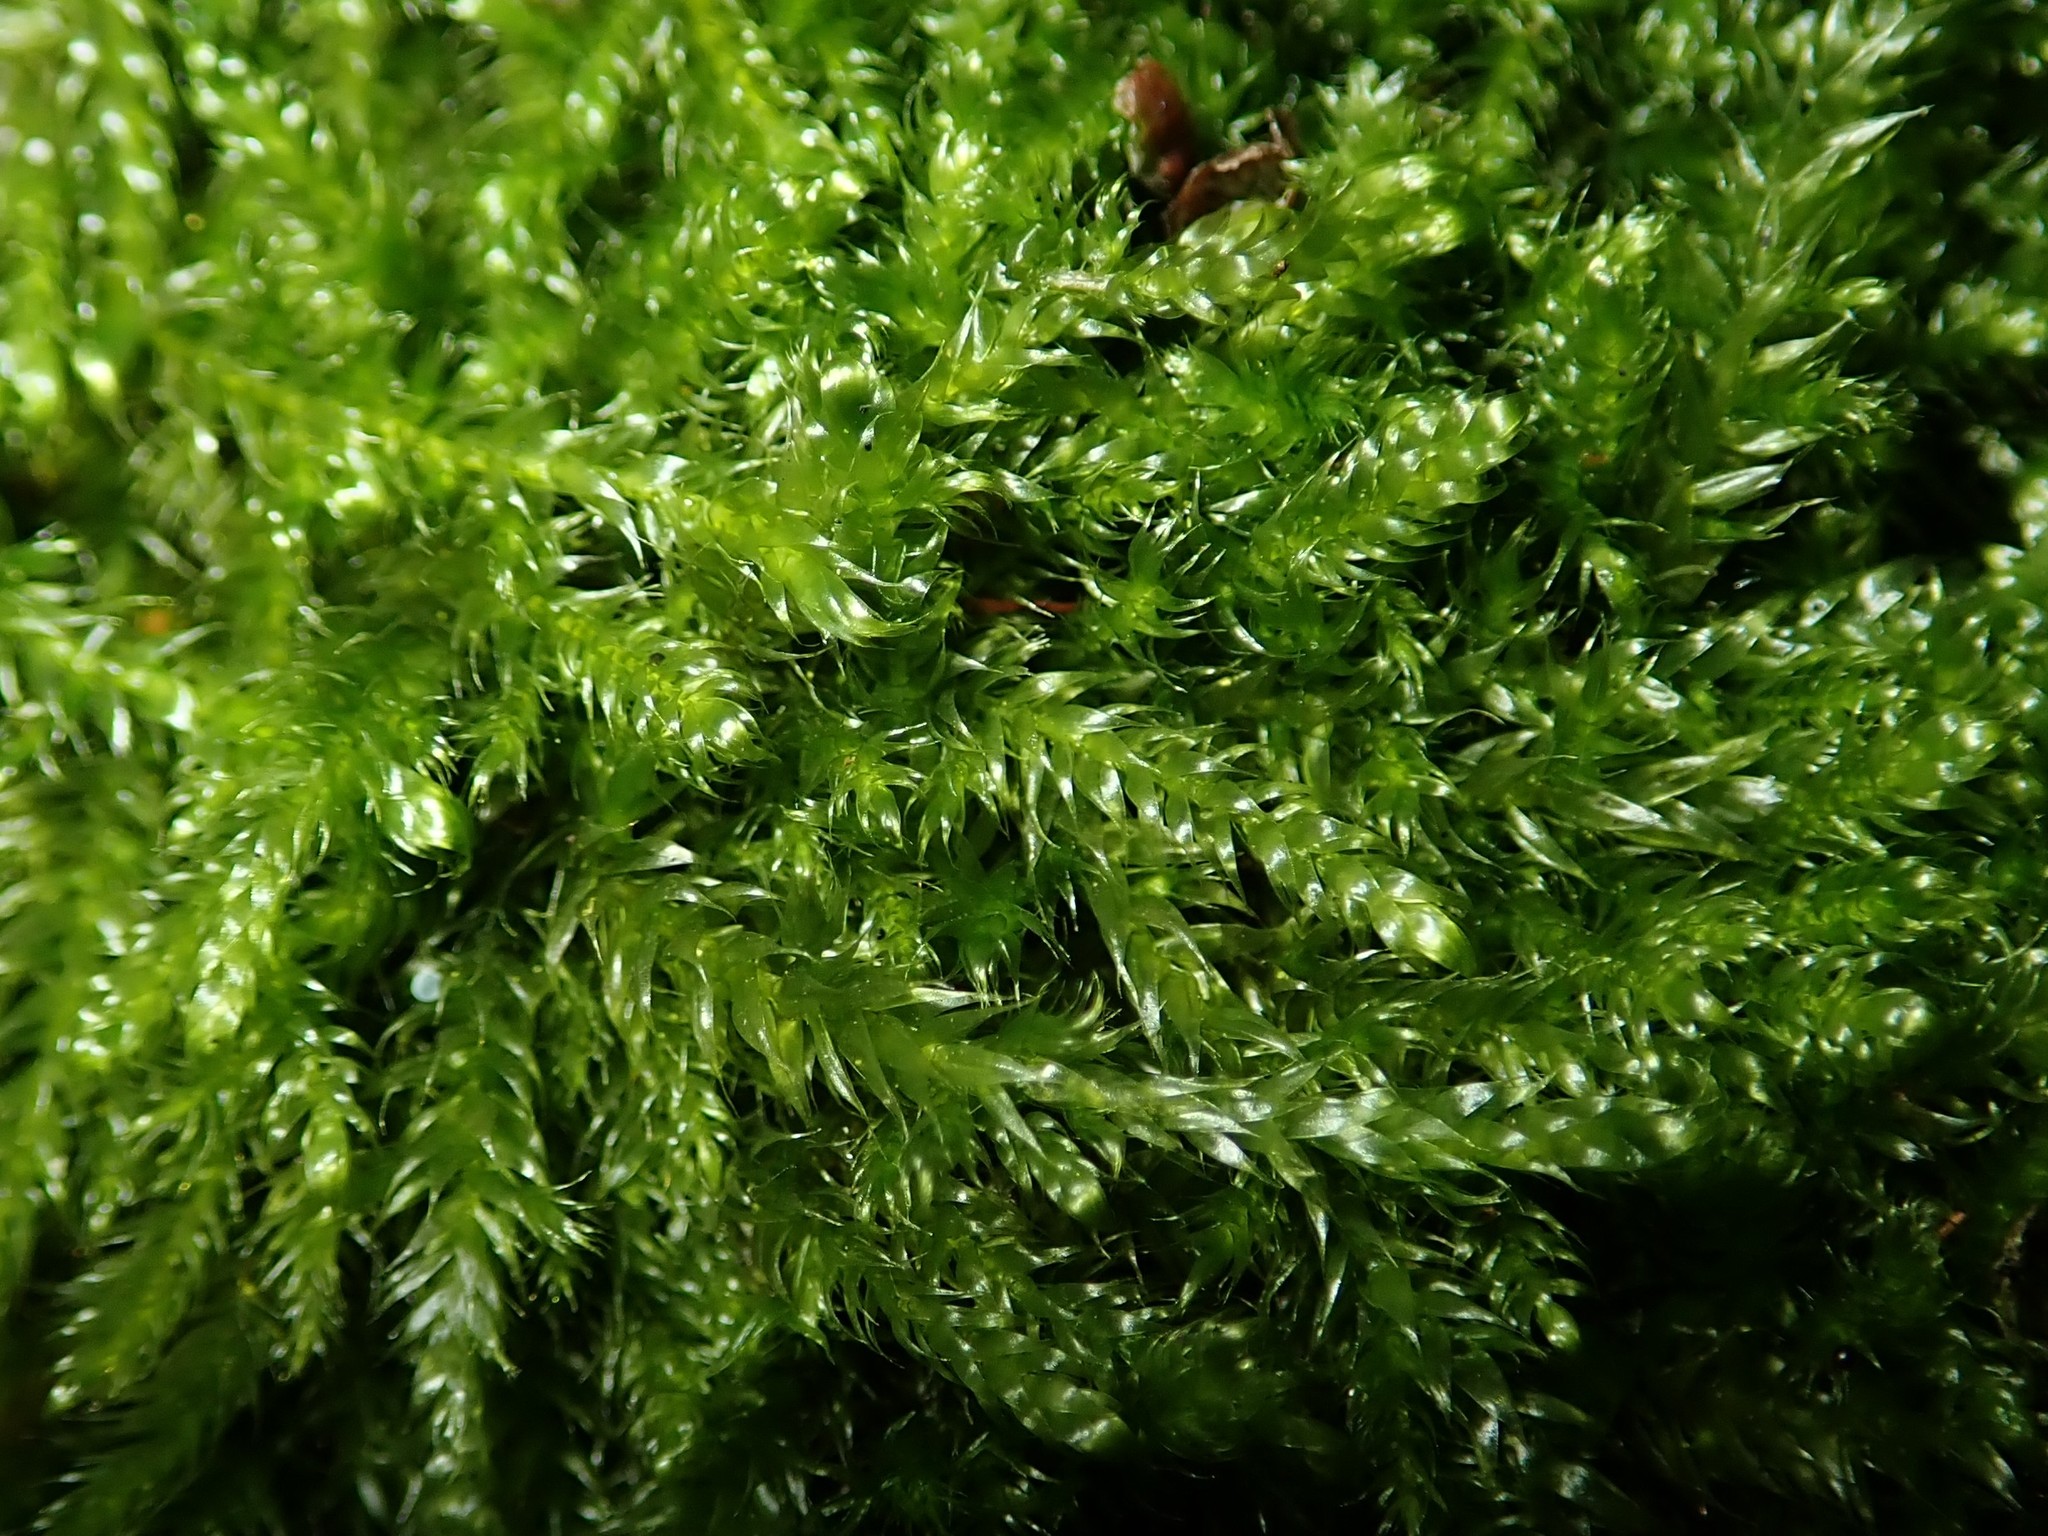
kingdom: Plantae
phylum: Bryophyta
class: Bryopsida
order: Hypnales
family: Hypnaceae
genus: Hypnum
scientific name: Hypnum cupressiforme
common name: Cypress-leaved plait-moss
